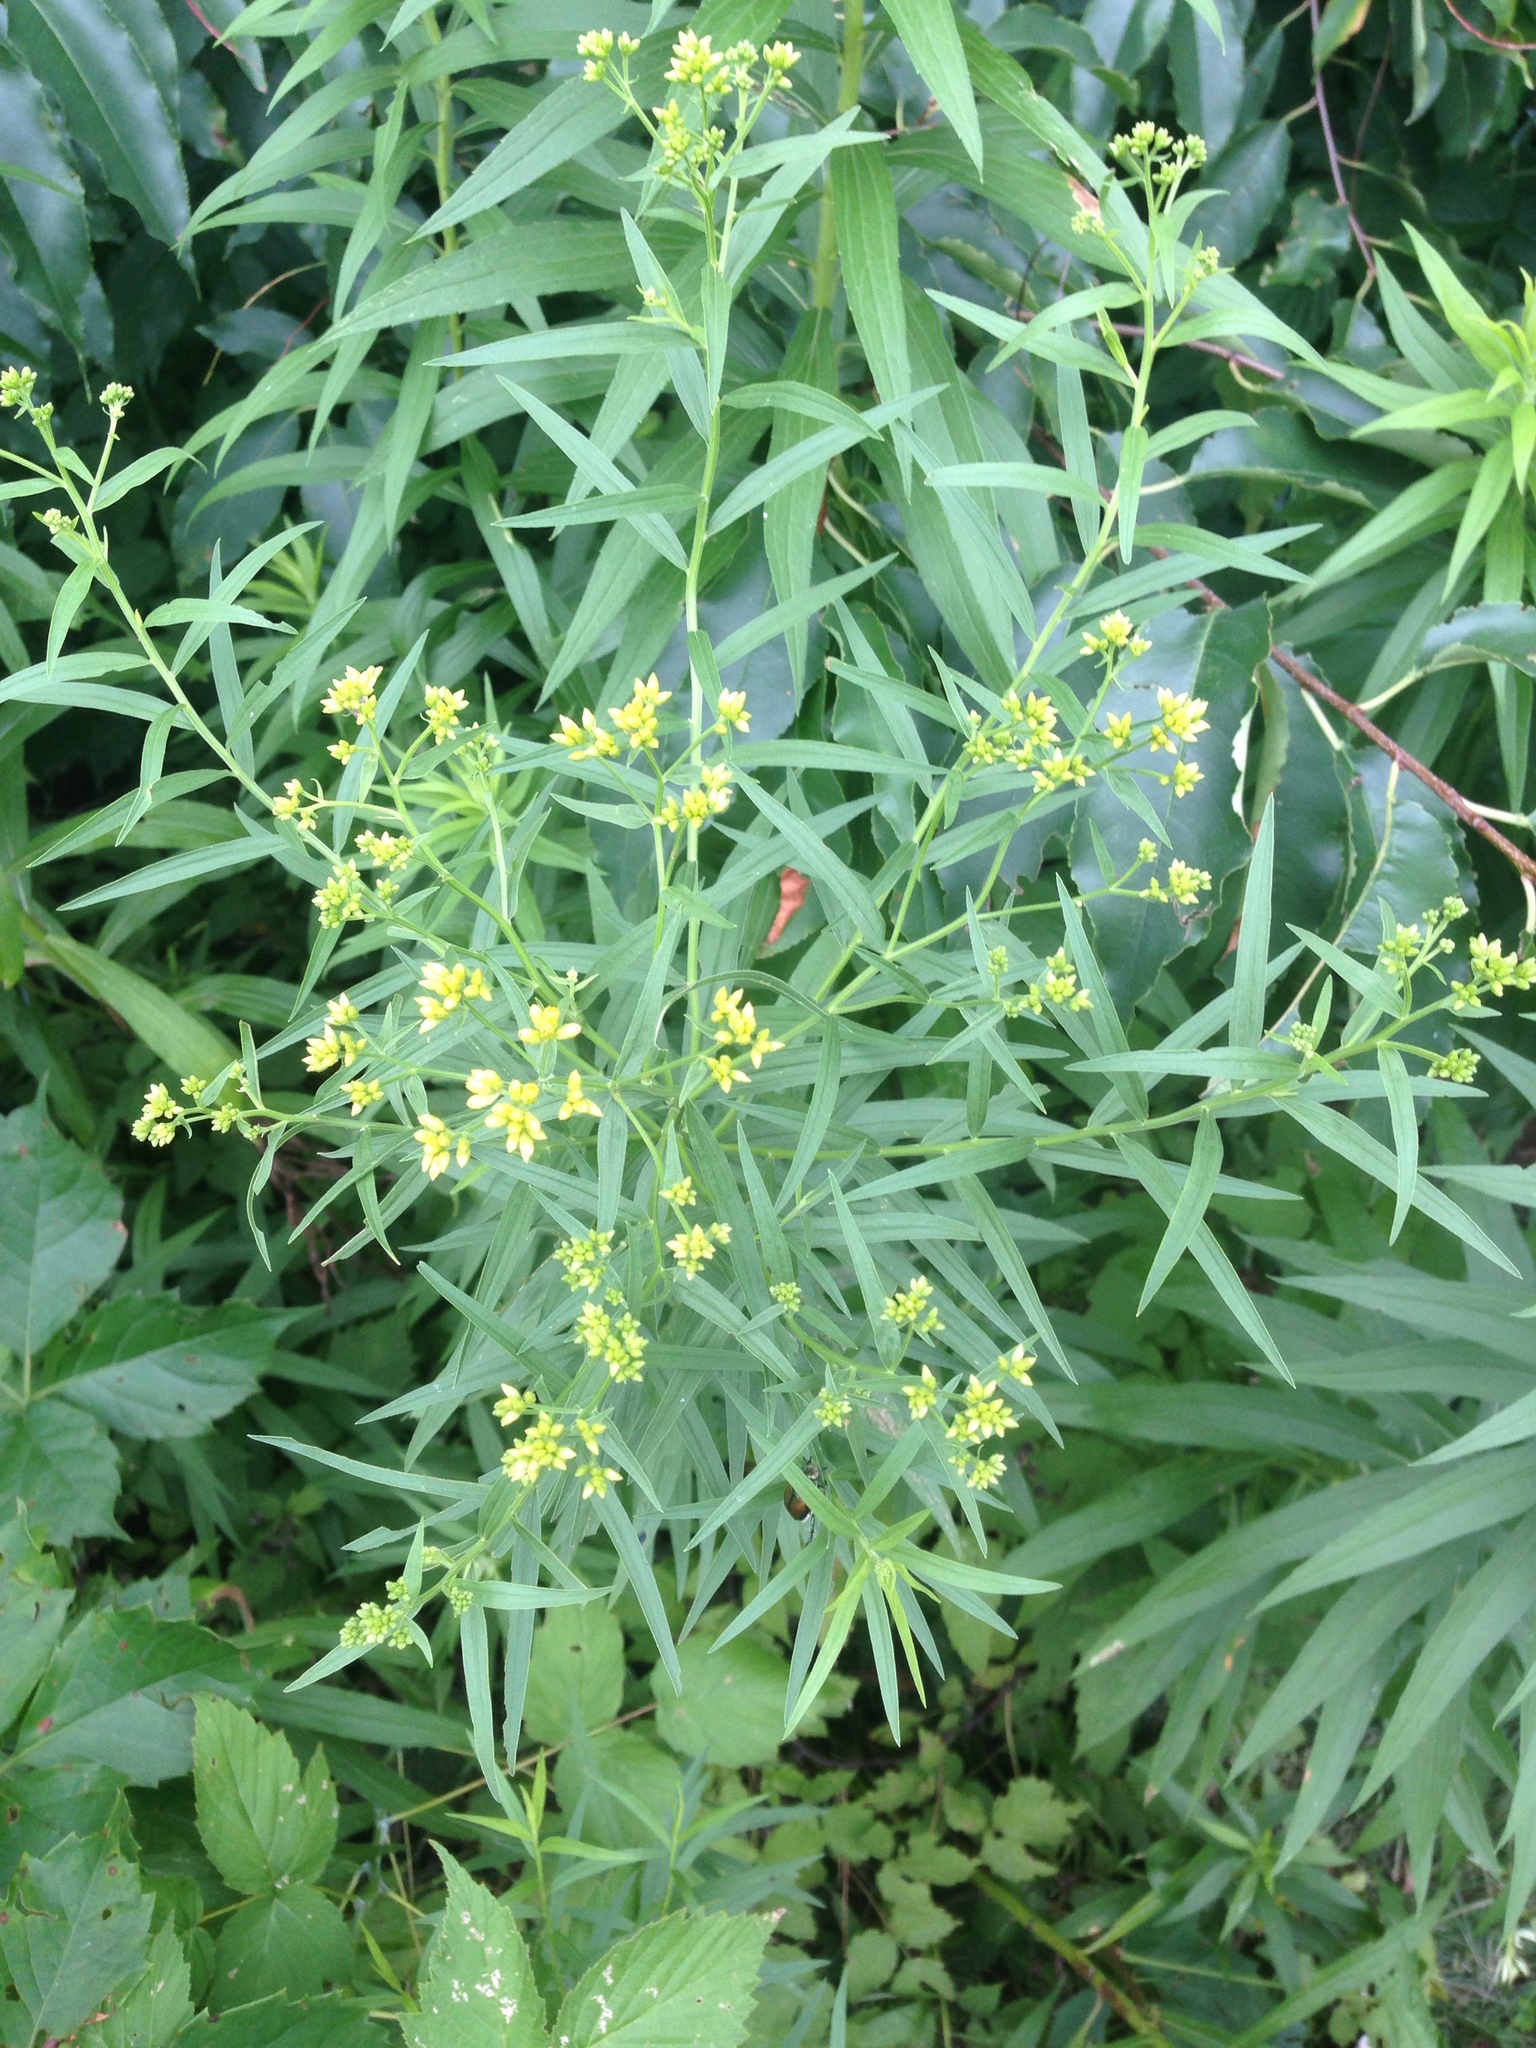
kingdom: Plantae
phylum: Tracheophyta
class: Magnoliopsida
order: Asterales
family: Asteraceae
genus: Euthamia
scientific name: Euthamia graminifolia
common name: Common goldentop
